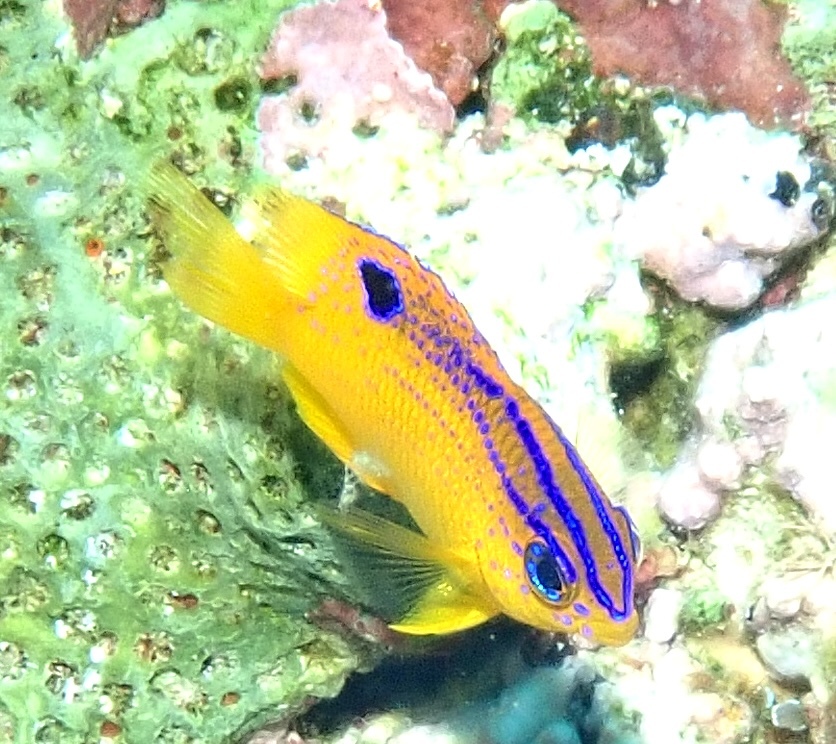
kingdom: Animalia
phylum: Chordata
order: Perciformes
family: Pomacentridae
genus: Stegastes
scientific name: Stegastes diencaeus
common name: Longfin damselfish
